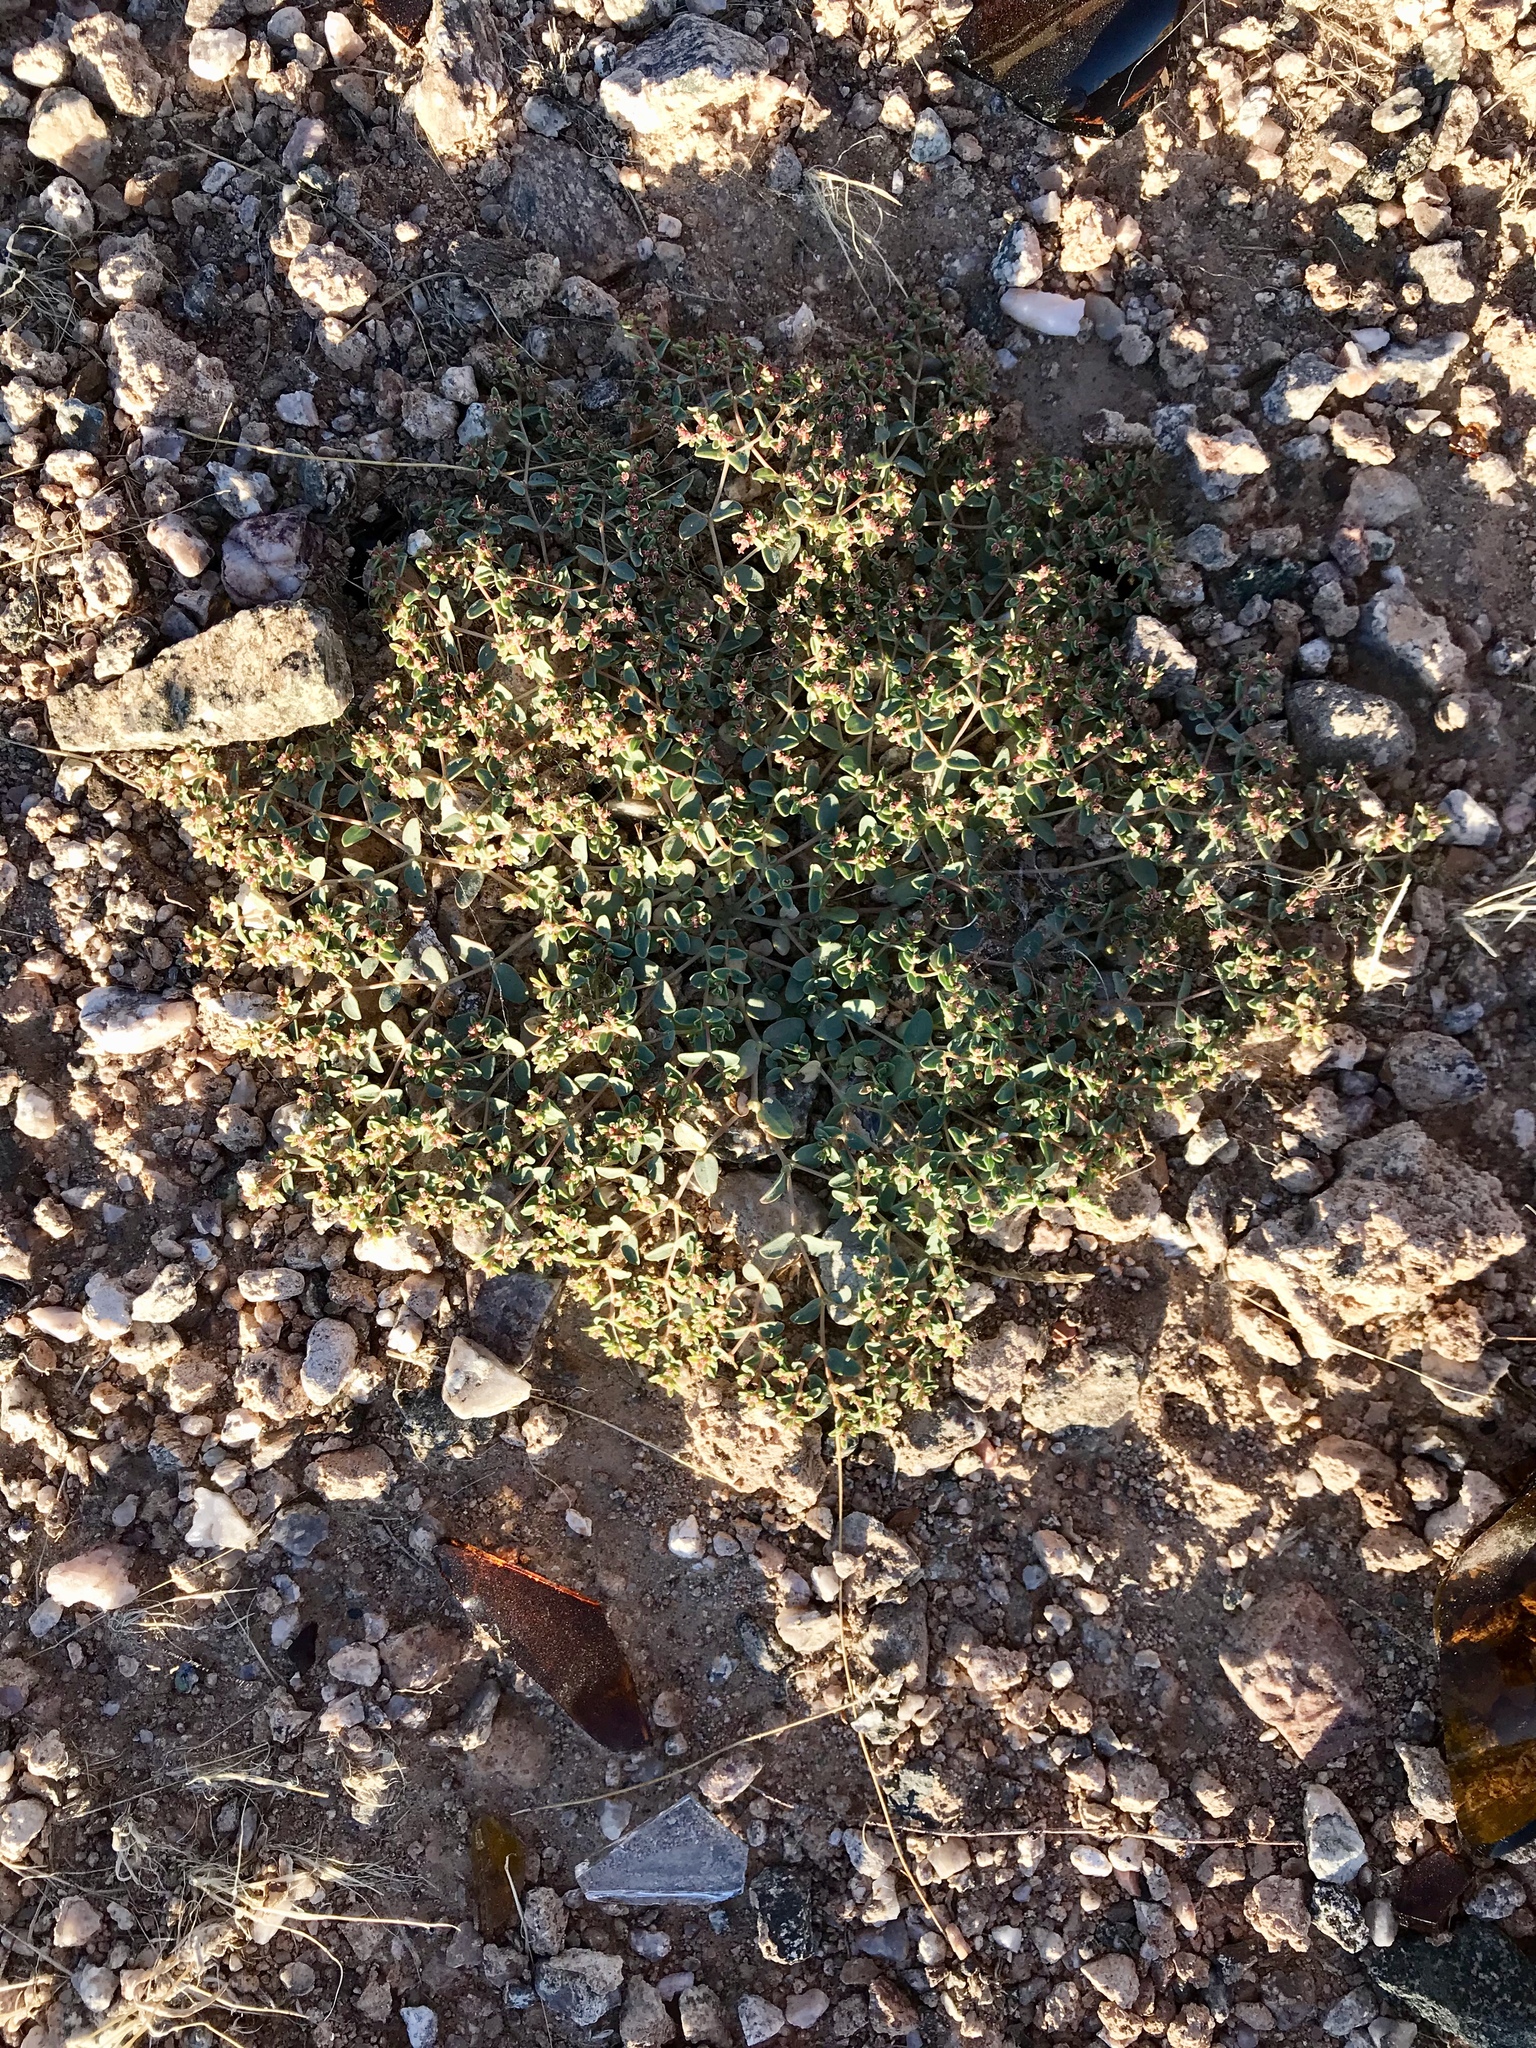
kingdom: Plantae
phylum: Tracheophyta
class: Magnoliopsida
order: Malpighiales
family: Euphorbiaceae
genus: Euphorbia
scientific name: Euphorbia polycarpa
